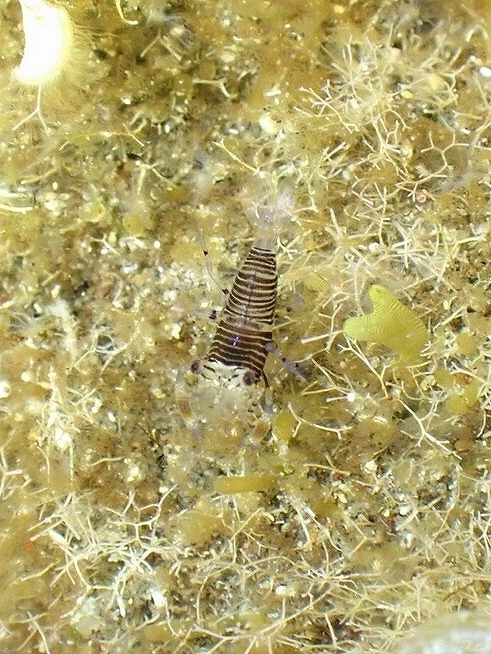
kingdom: Animalia
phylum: Arthropoda
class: Malacostraca
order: Decapoda
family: Palaemonidae
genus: Gnathophyllum
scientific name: Gnathophyllum americanum
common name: Bumblebee shrimp
